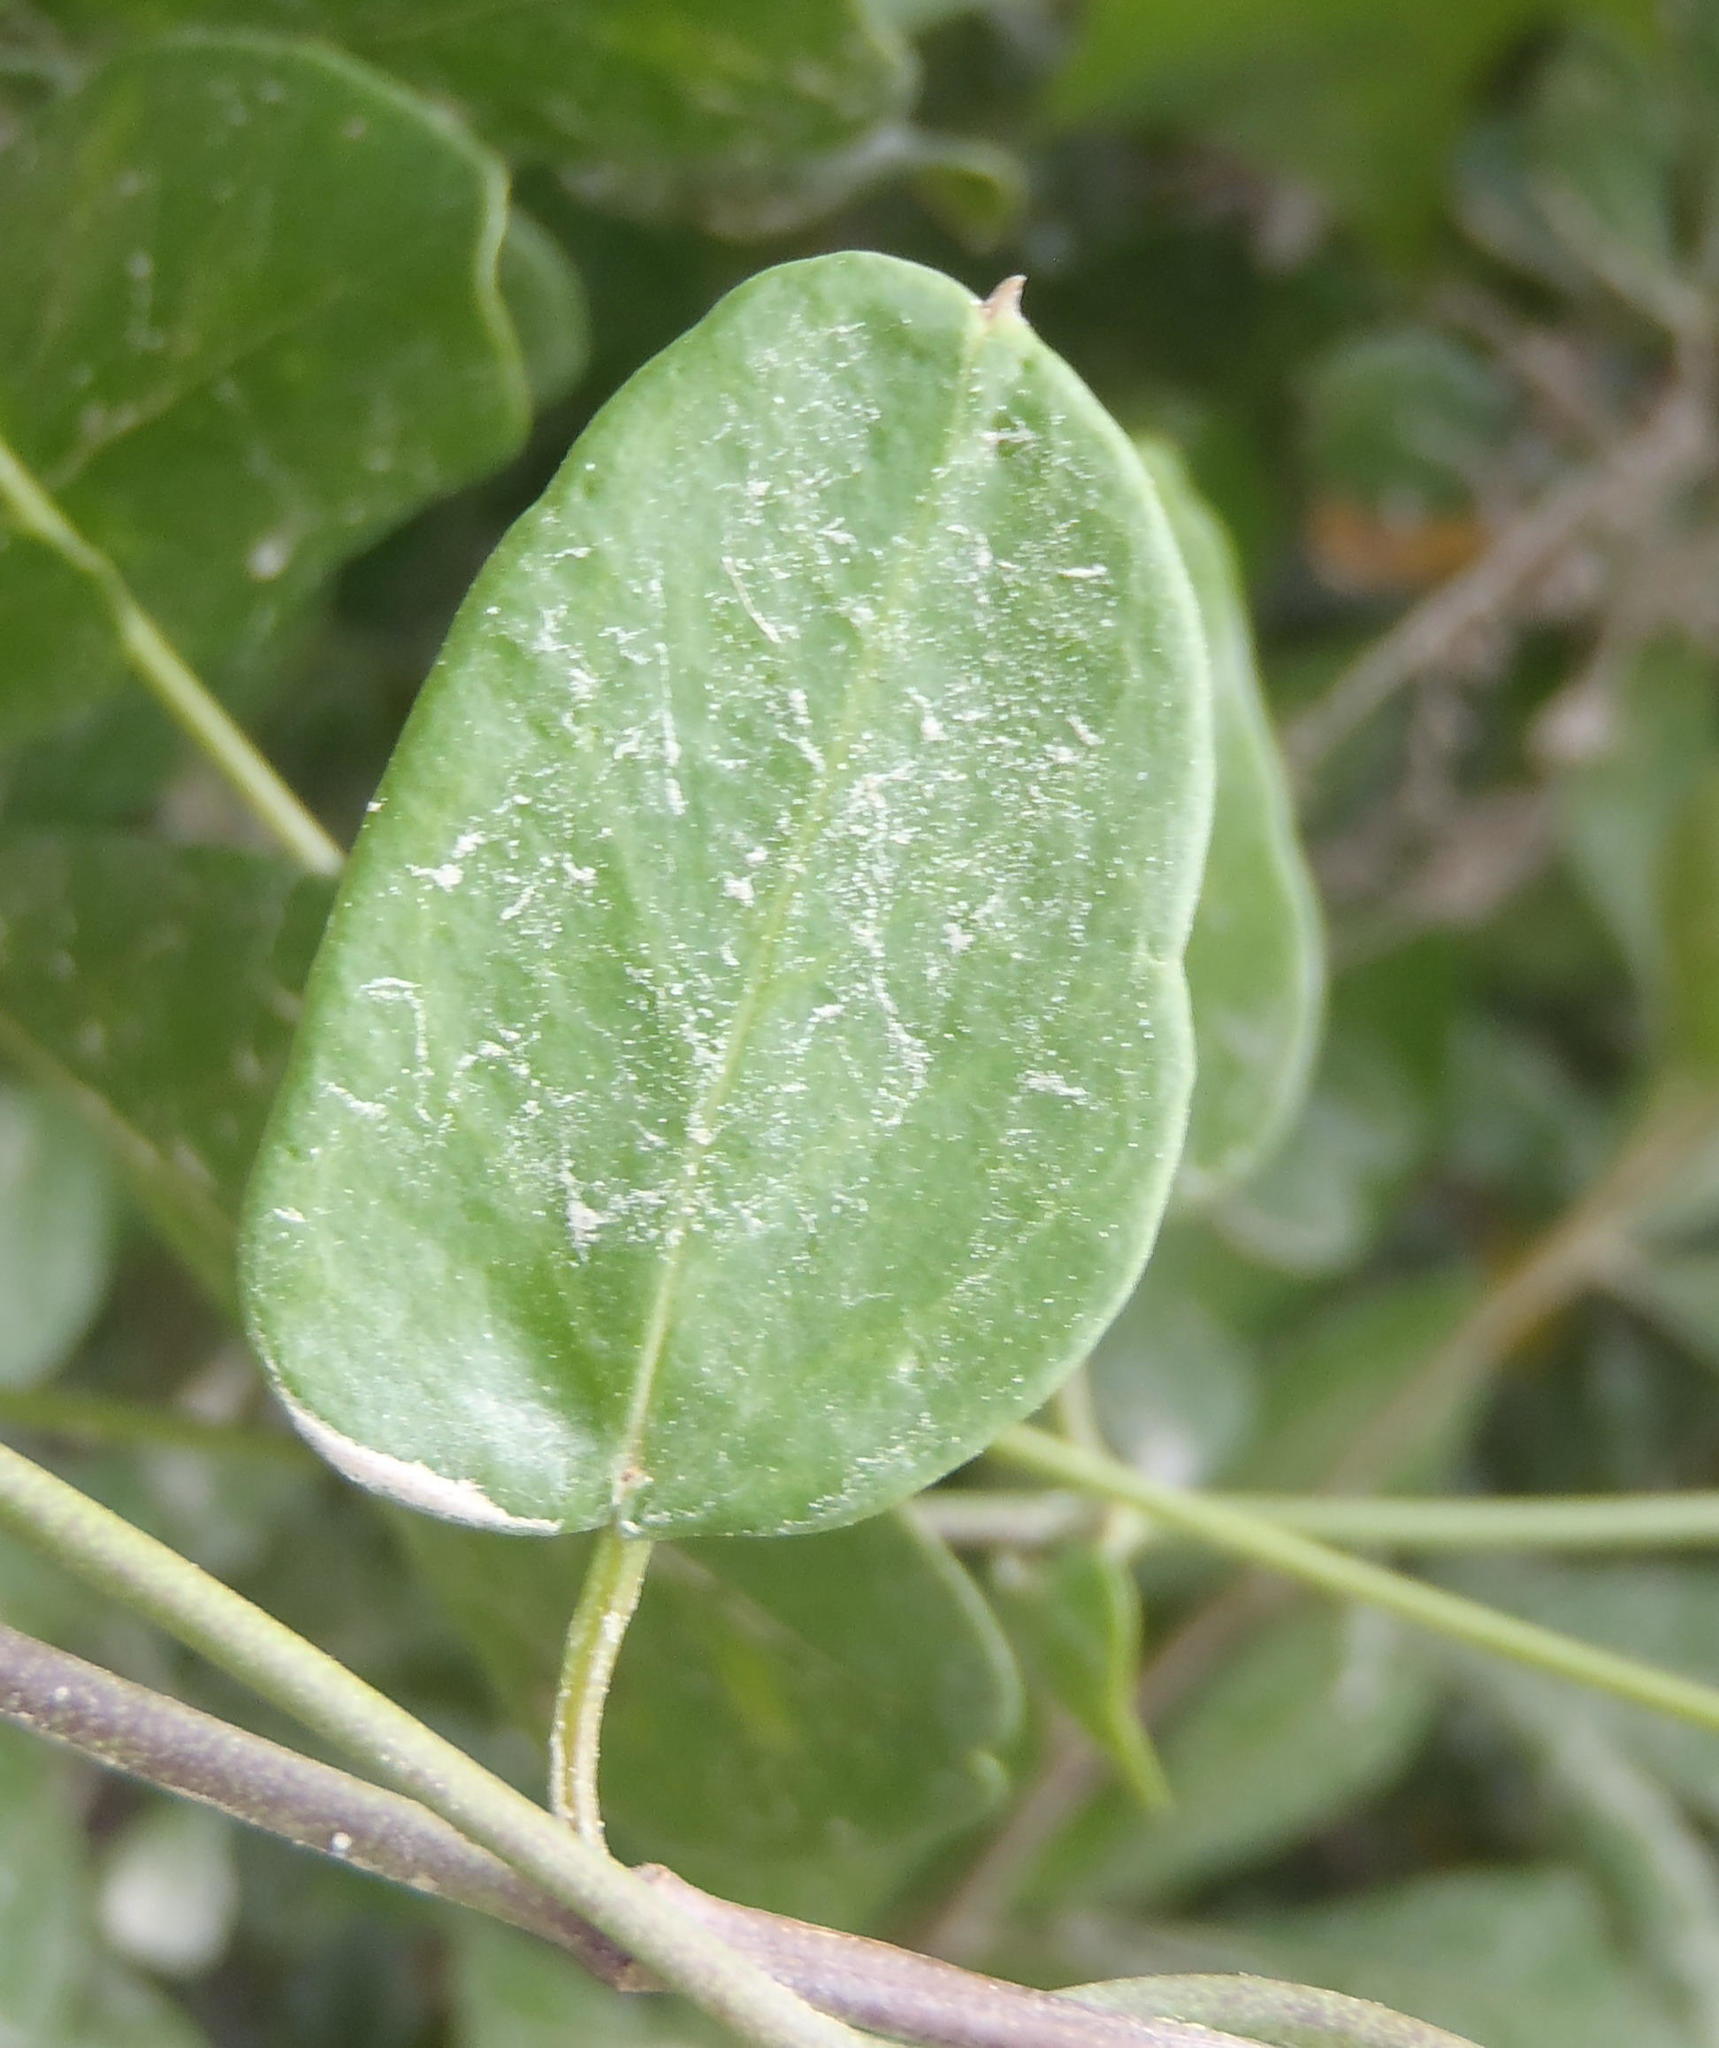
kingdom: Plantae
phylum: Tracheophyta
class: Magnoliopsida
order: Gentianales
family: Apocynaceae
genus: Cynanchum
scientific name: Cynanchum ellipticum
